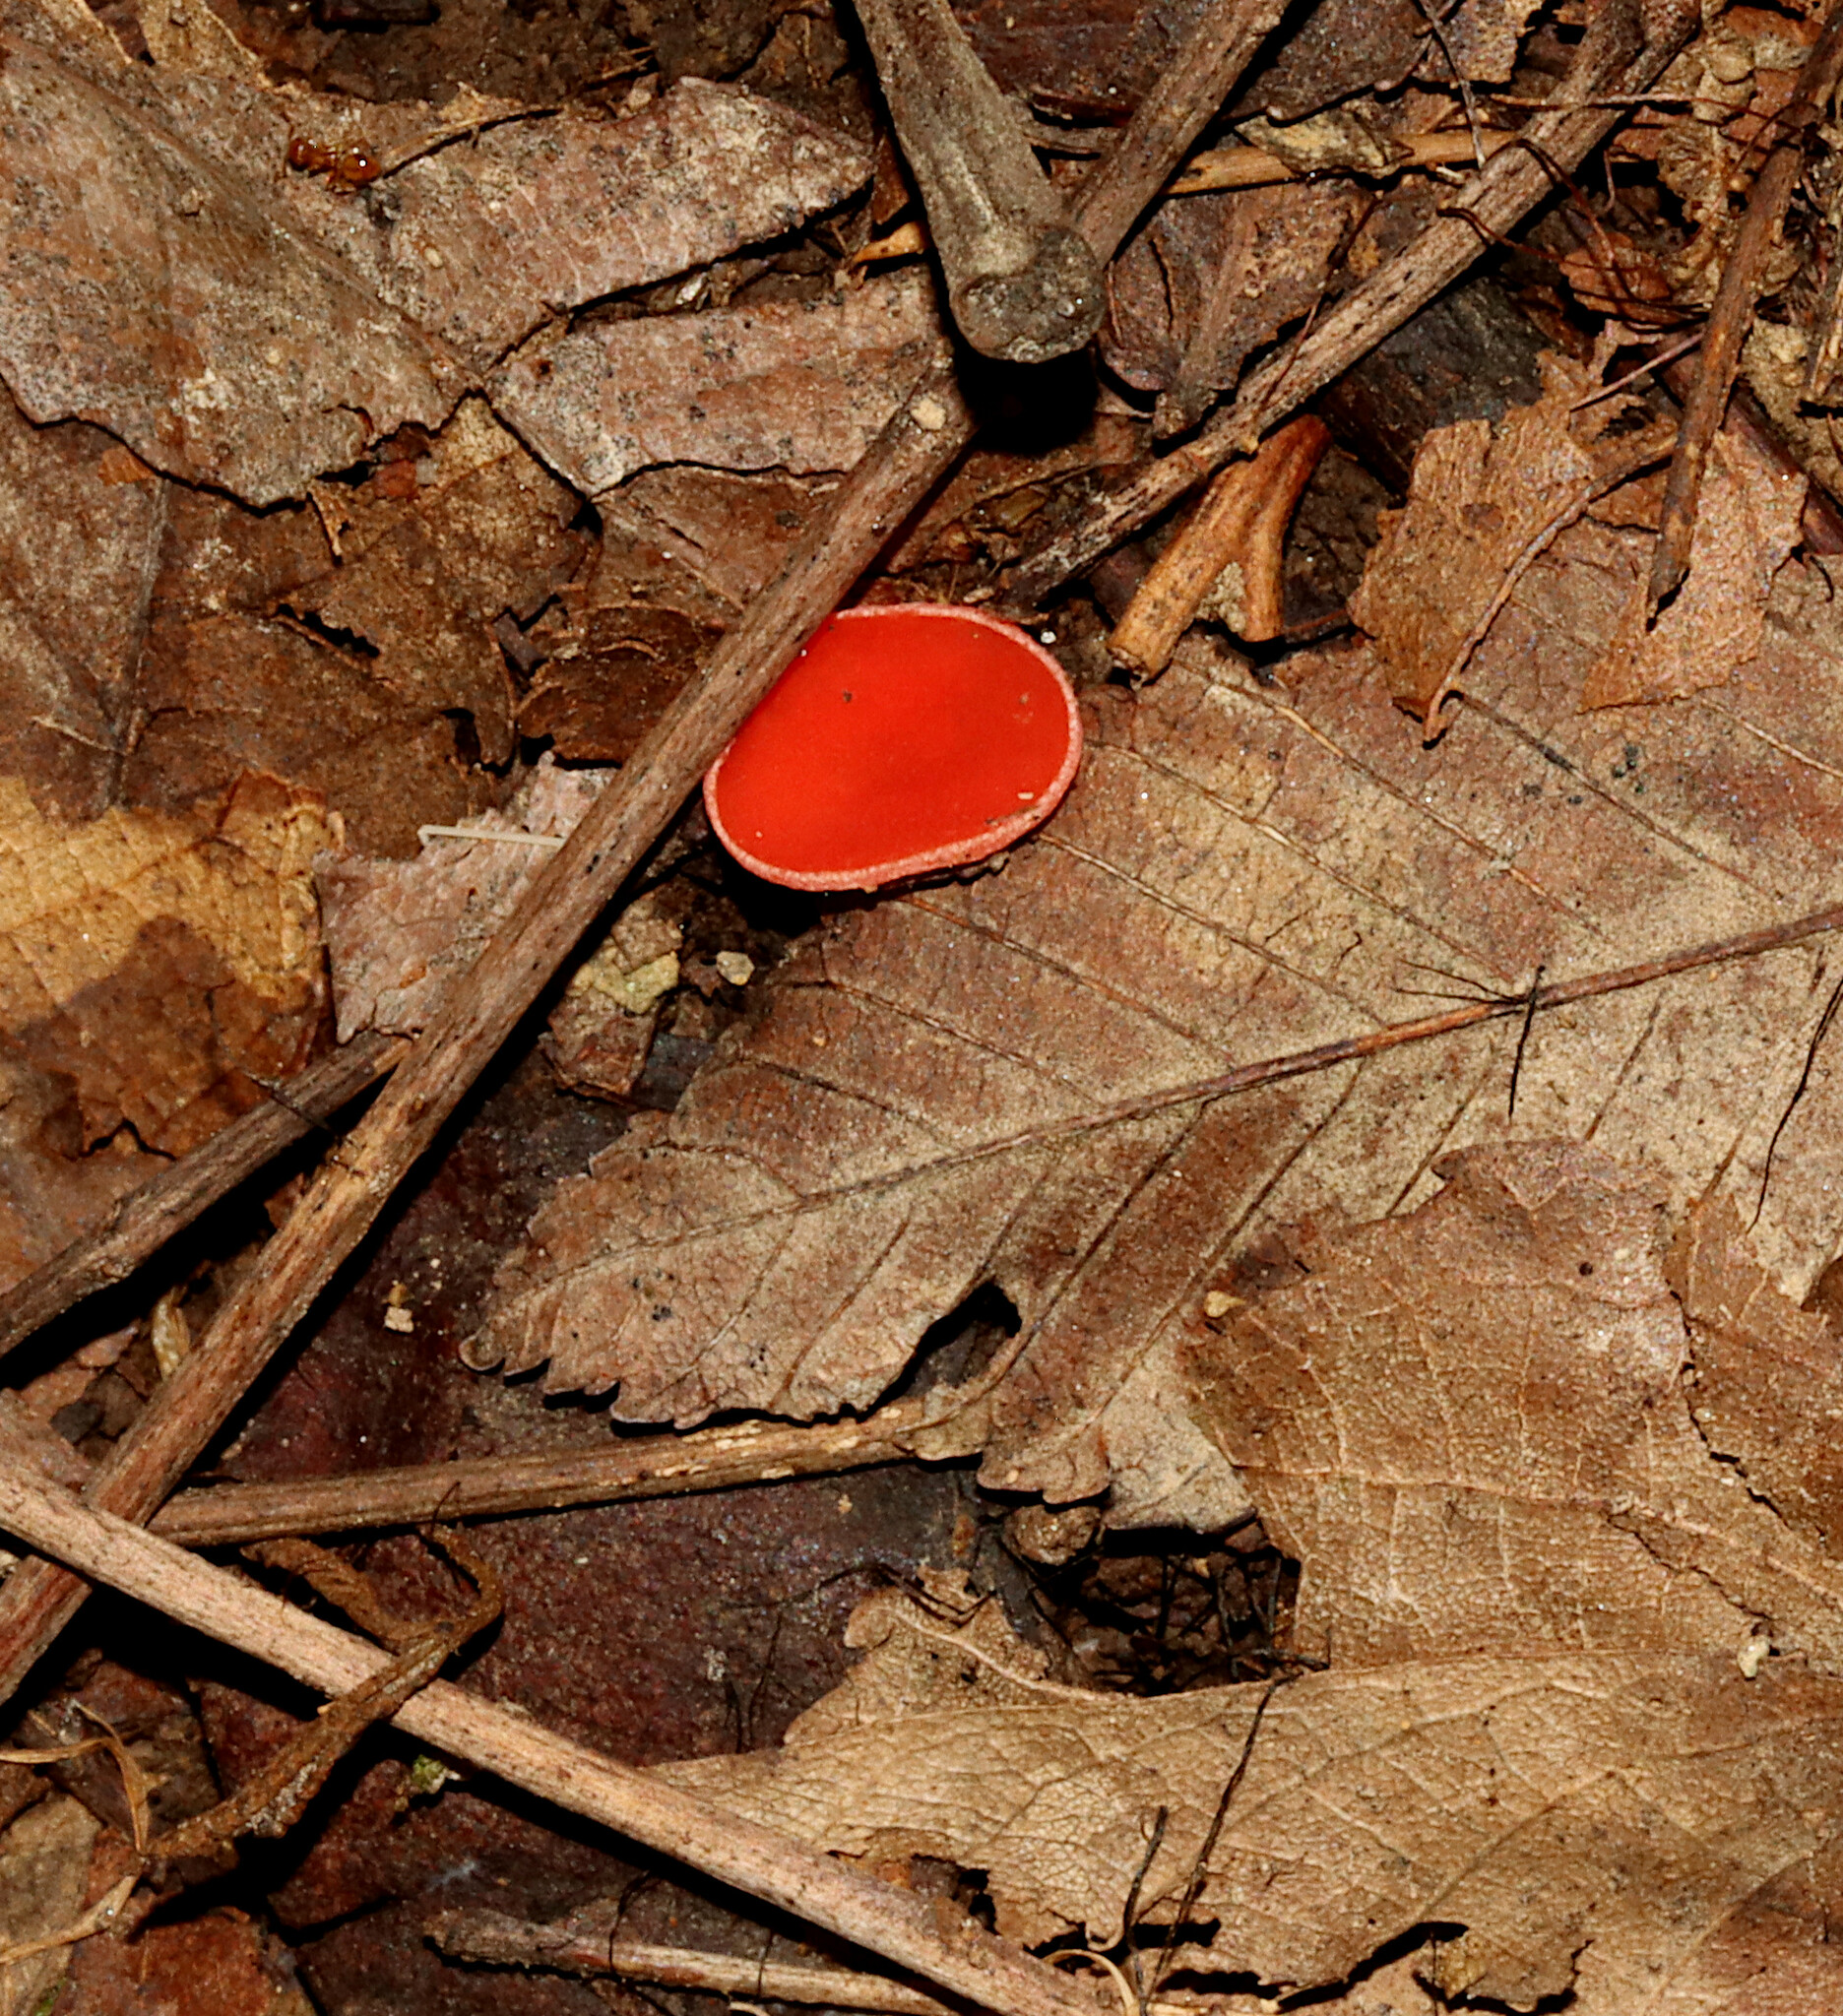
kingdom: Fungi
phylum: Ascomycota
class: Pezizomycetes
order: Pezizales
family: Sarcoscyphaceae
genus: Sarcoscypha
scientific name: Sarcoscypha occidentalis
